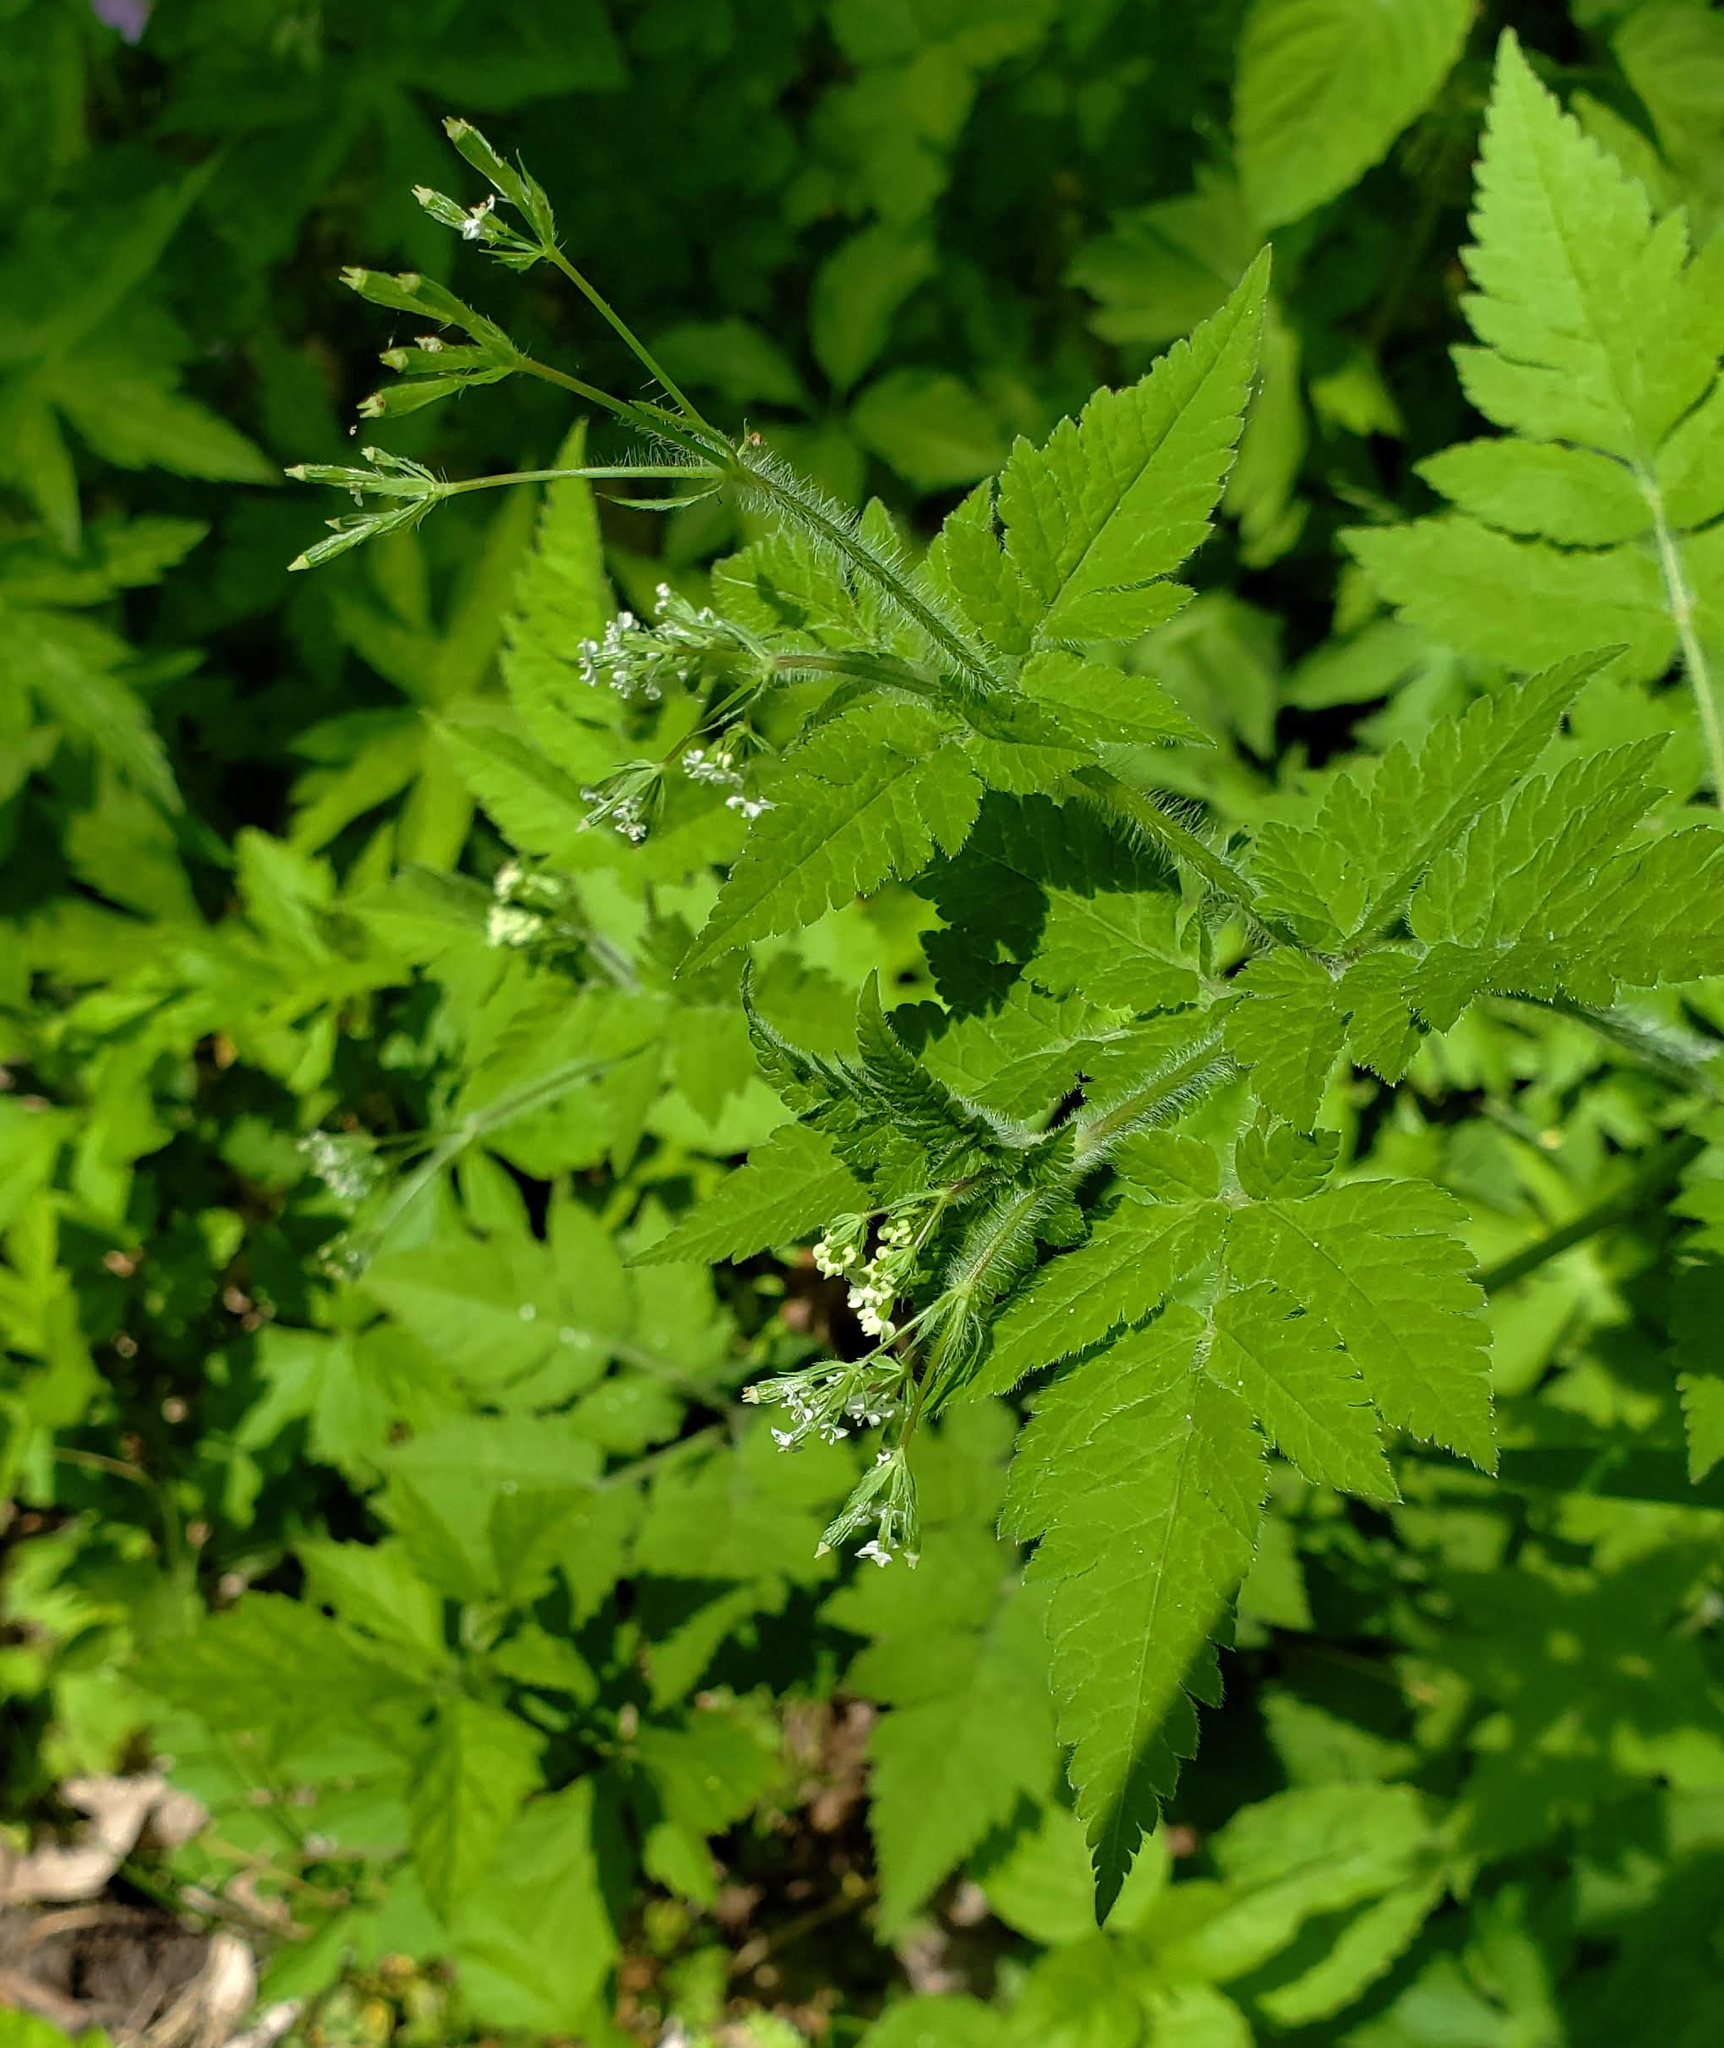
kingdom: Plantae
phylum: Tracheophyta
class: Magnoliopsida
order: Apiales
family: Apiaceae
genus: Osmorhiza
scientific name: Osmorhiza claytonii
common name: Hairy sweet cicely
